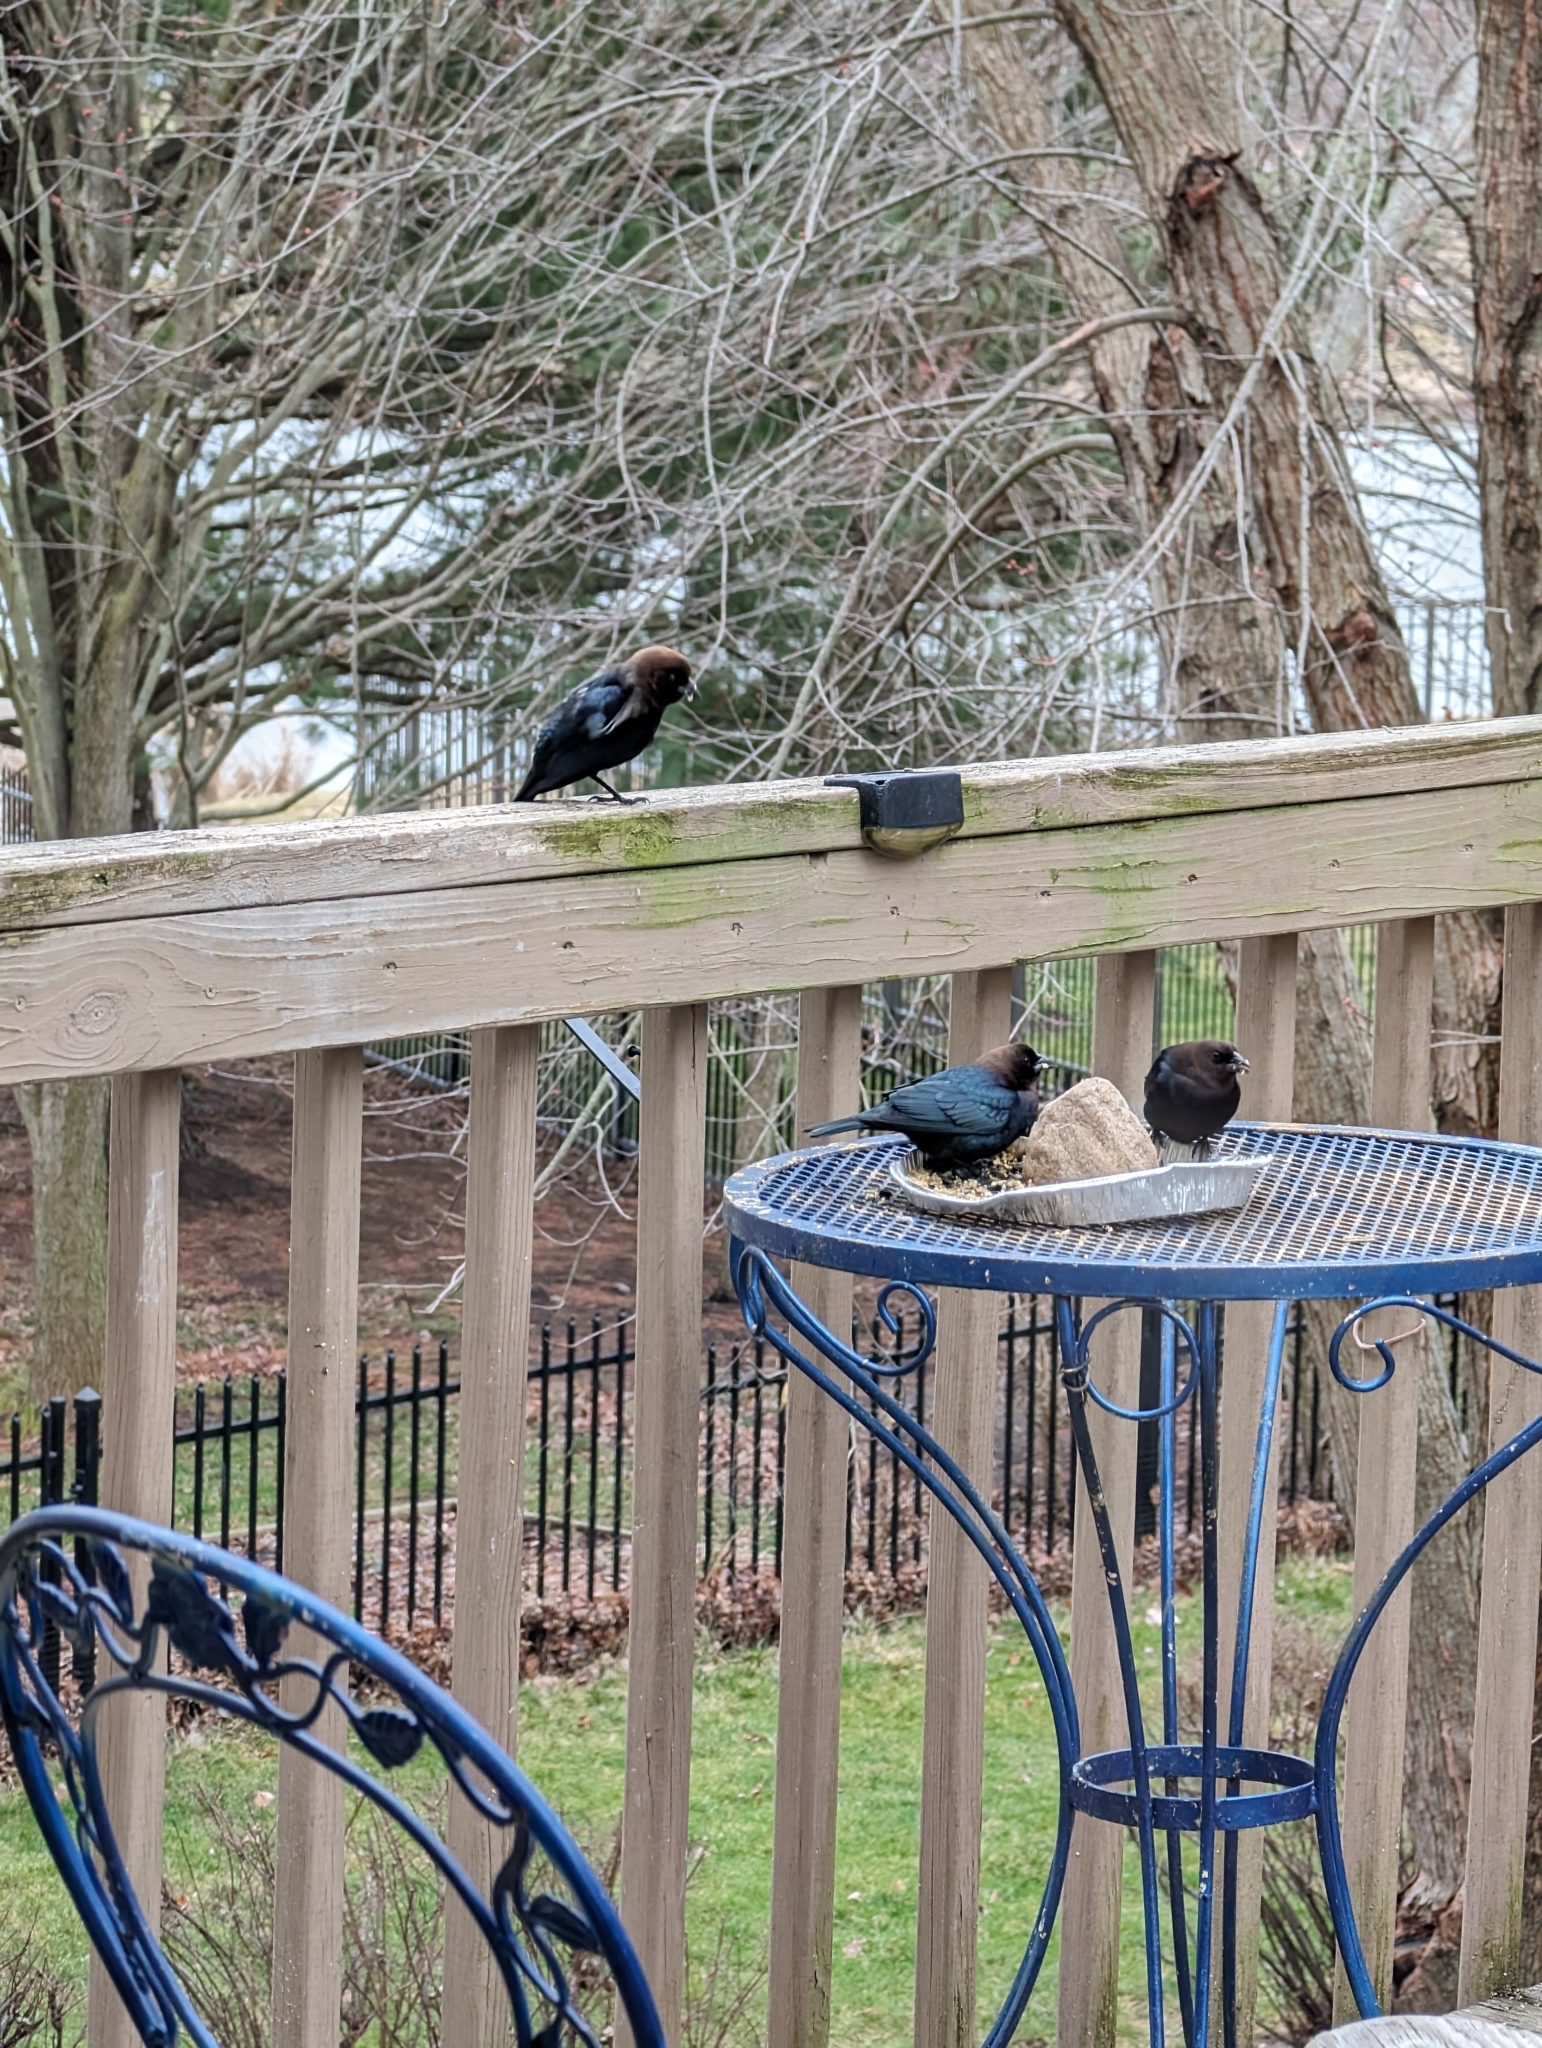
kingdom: Animalia
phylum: Chordata
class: Aves
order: Passeriformes
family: Icteridae
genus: Molothrus
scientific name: Molothrus ater
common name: Brown-headed cowbird
